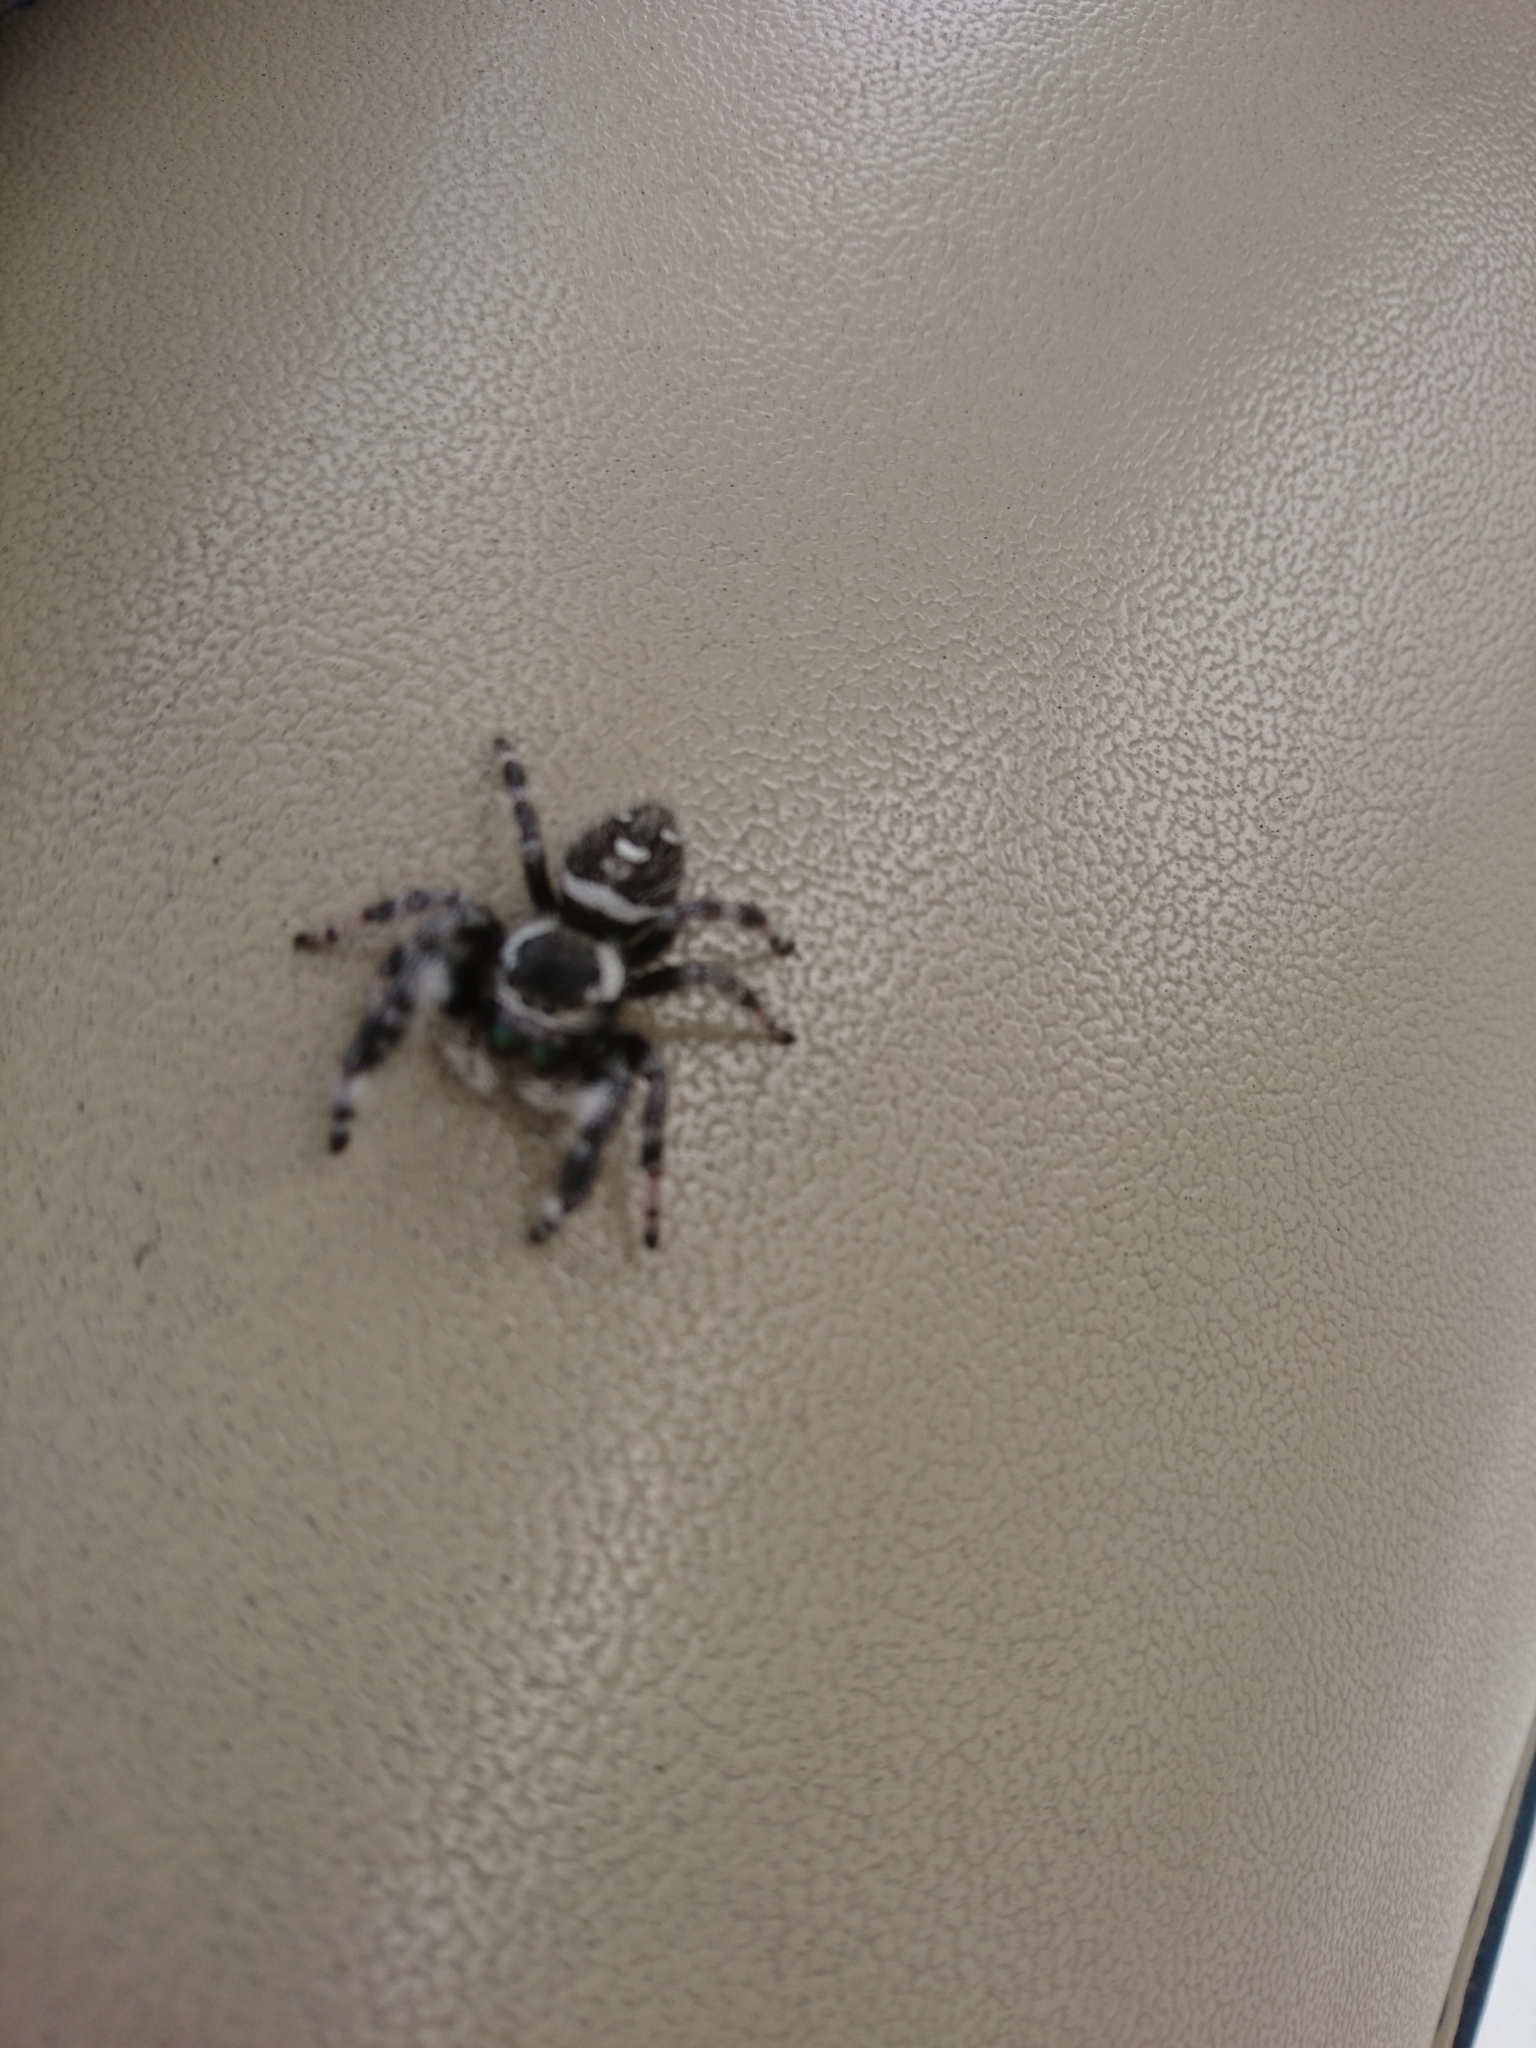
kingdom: Animalia
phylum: Arthropoda
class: Arachnida
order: Araneae
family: Salticidae
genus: Phidippus
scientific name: Phidippus regius
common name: Regal jumper
